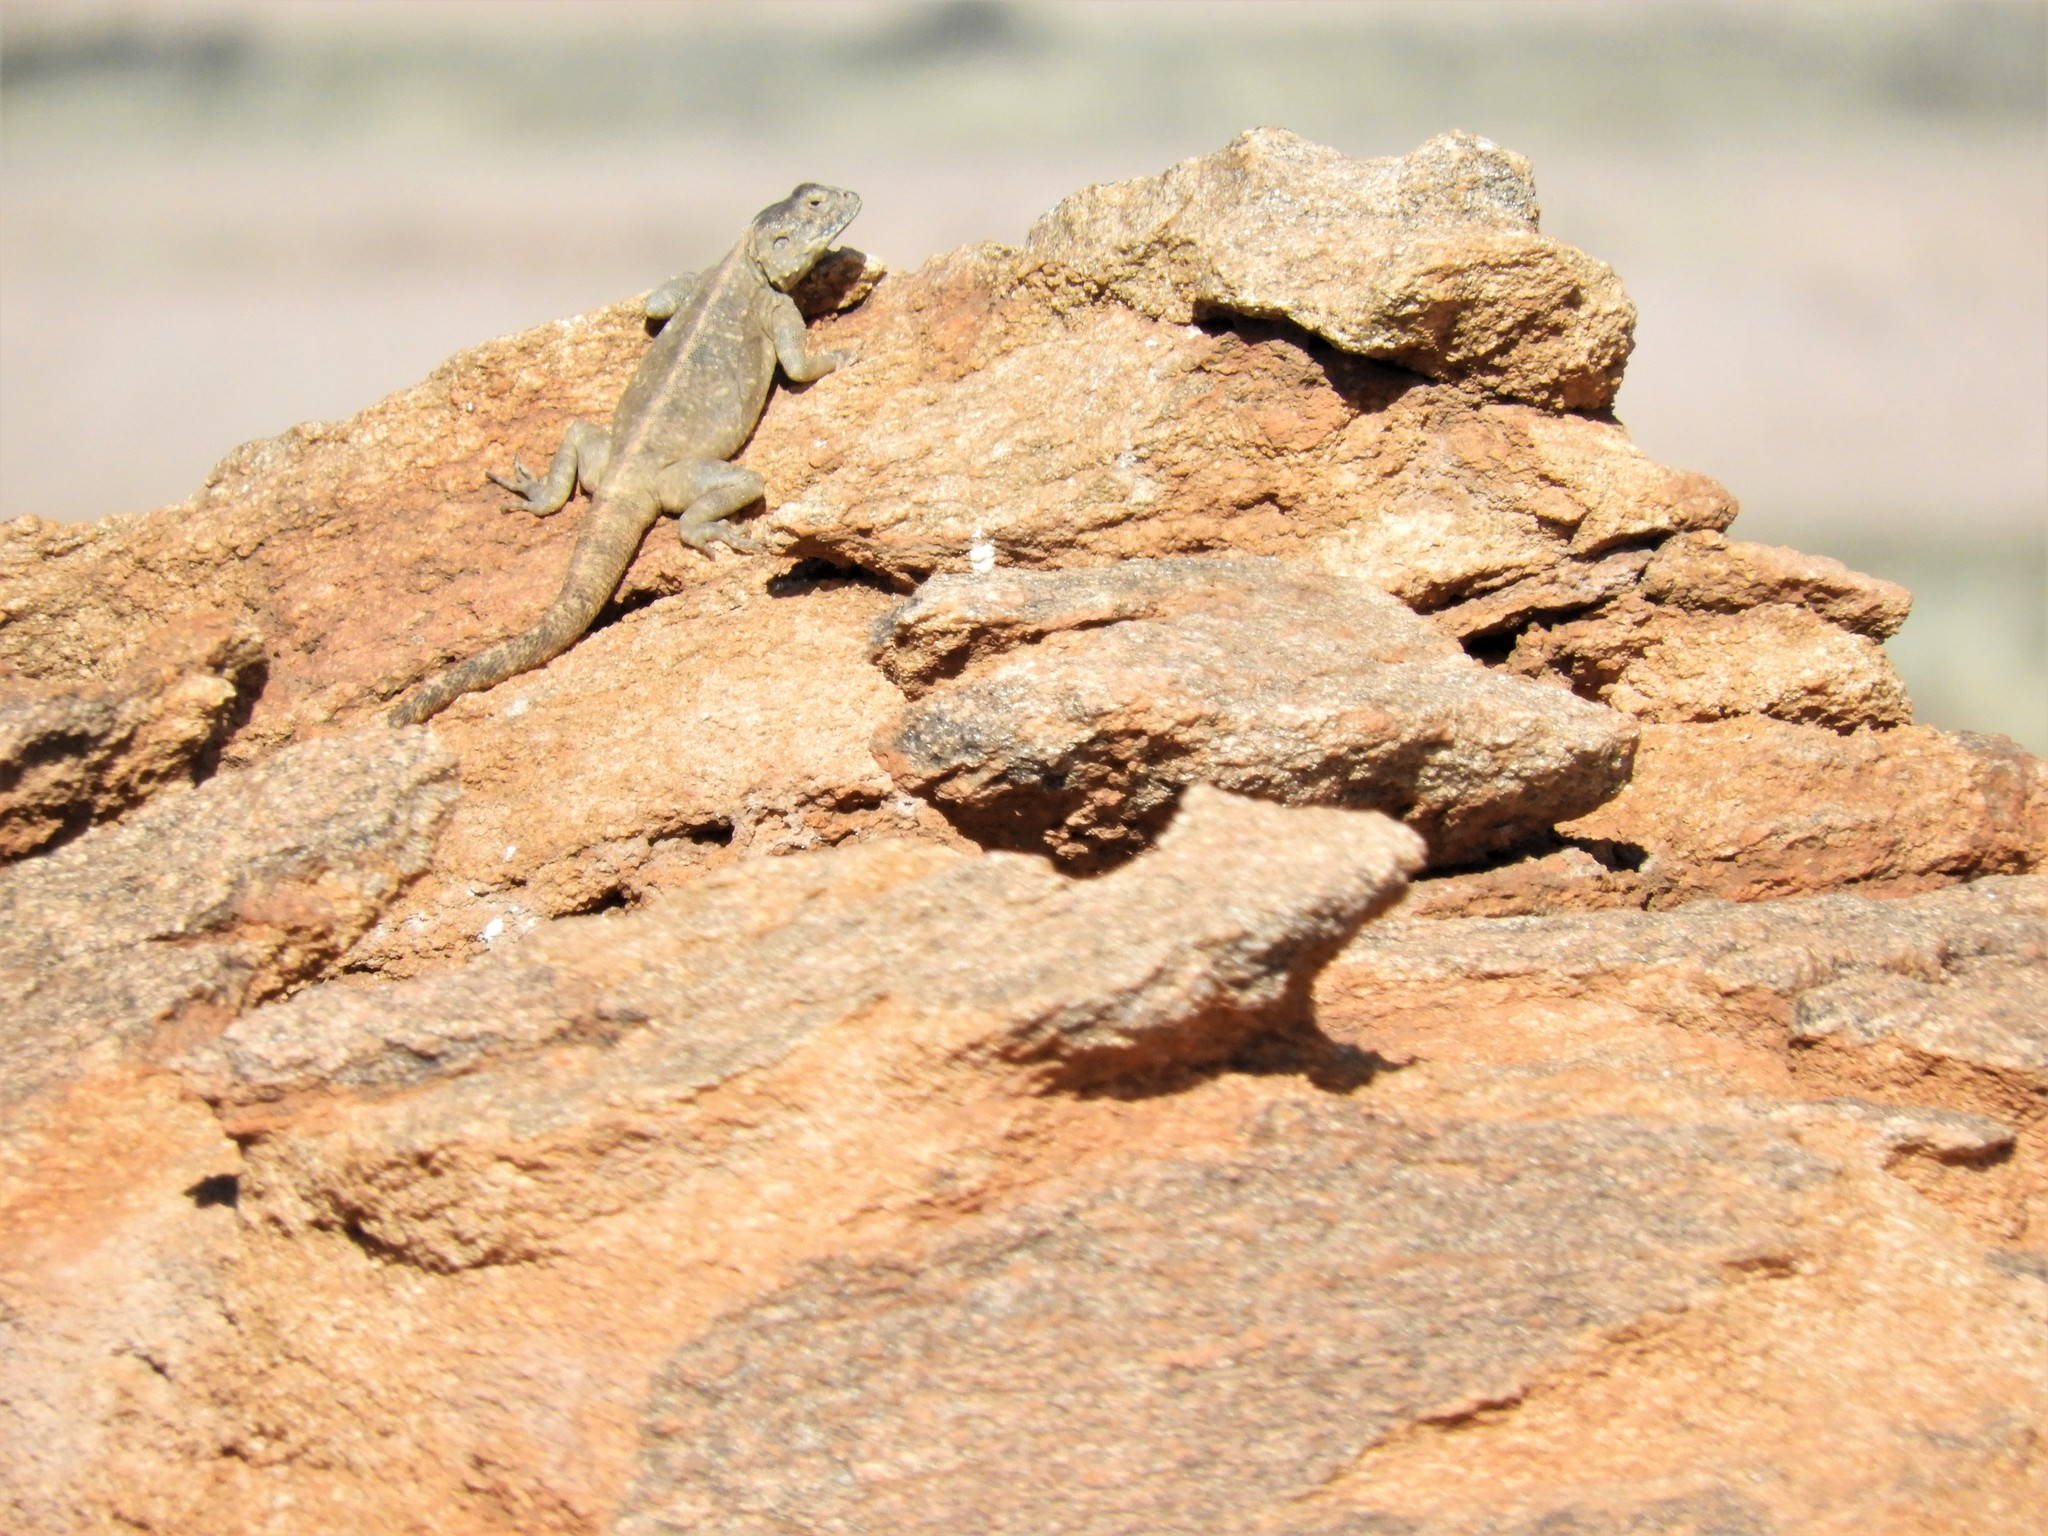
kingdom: Animalia
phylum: Chordata
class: Squamata
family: Agamidae
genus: Agama
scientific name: Agama atra
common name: Southern african rock agama
